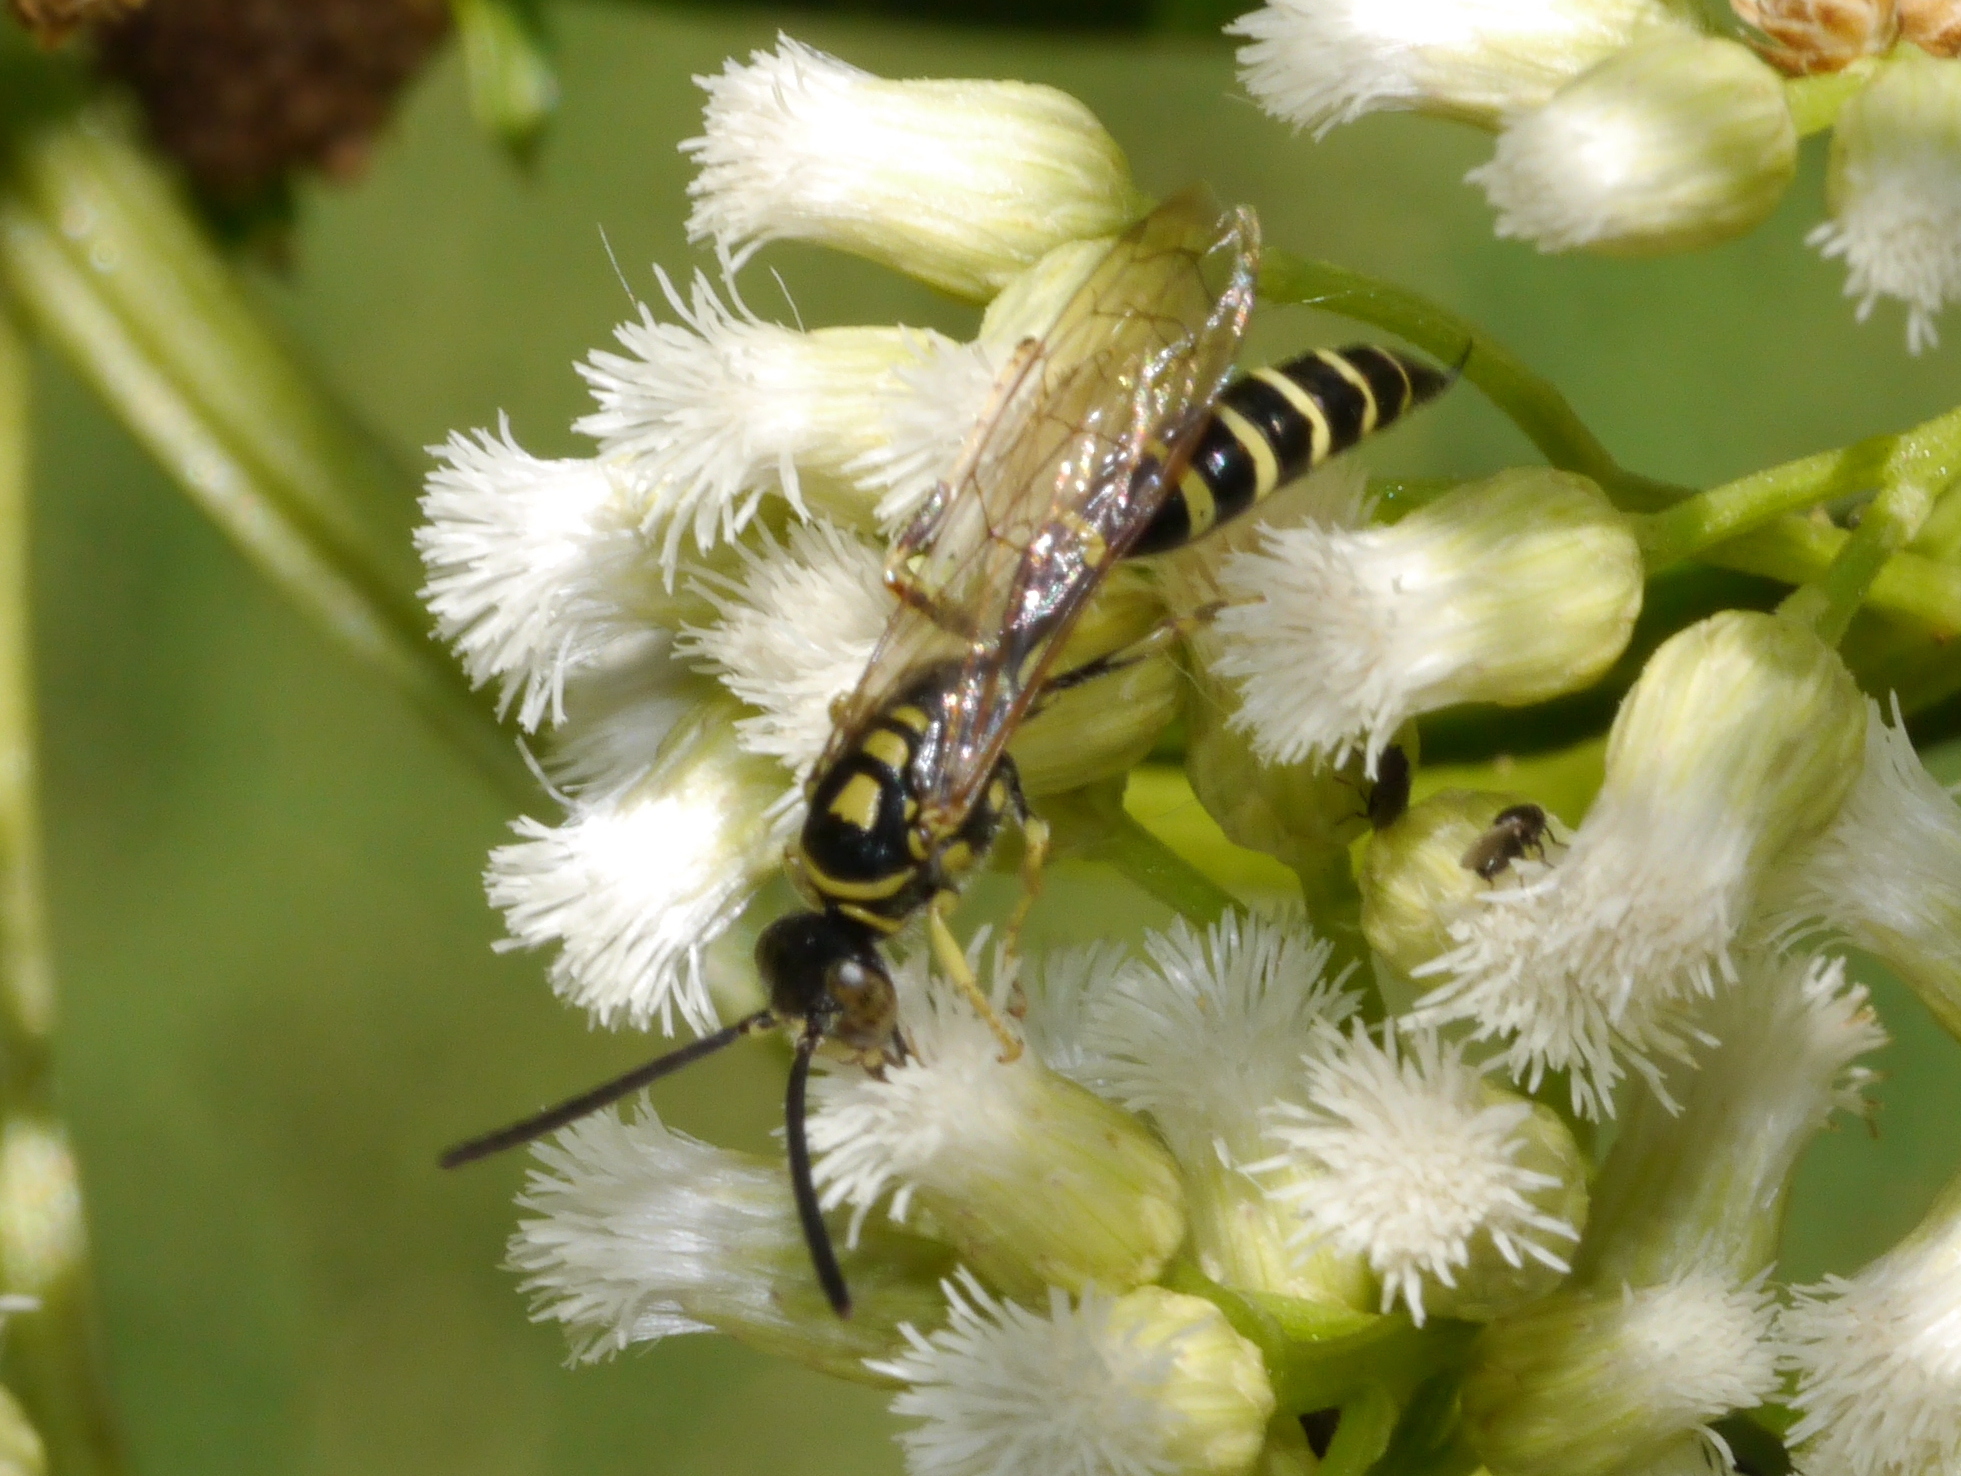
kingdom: Animalia
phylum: Arthropoda
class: Insecta
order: Hymenoptera
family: Tiphiidae
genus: Myzinum
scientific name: Myzinum
